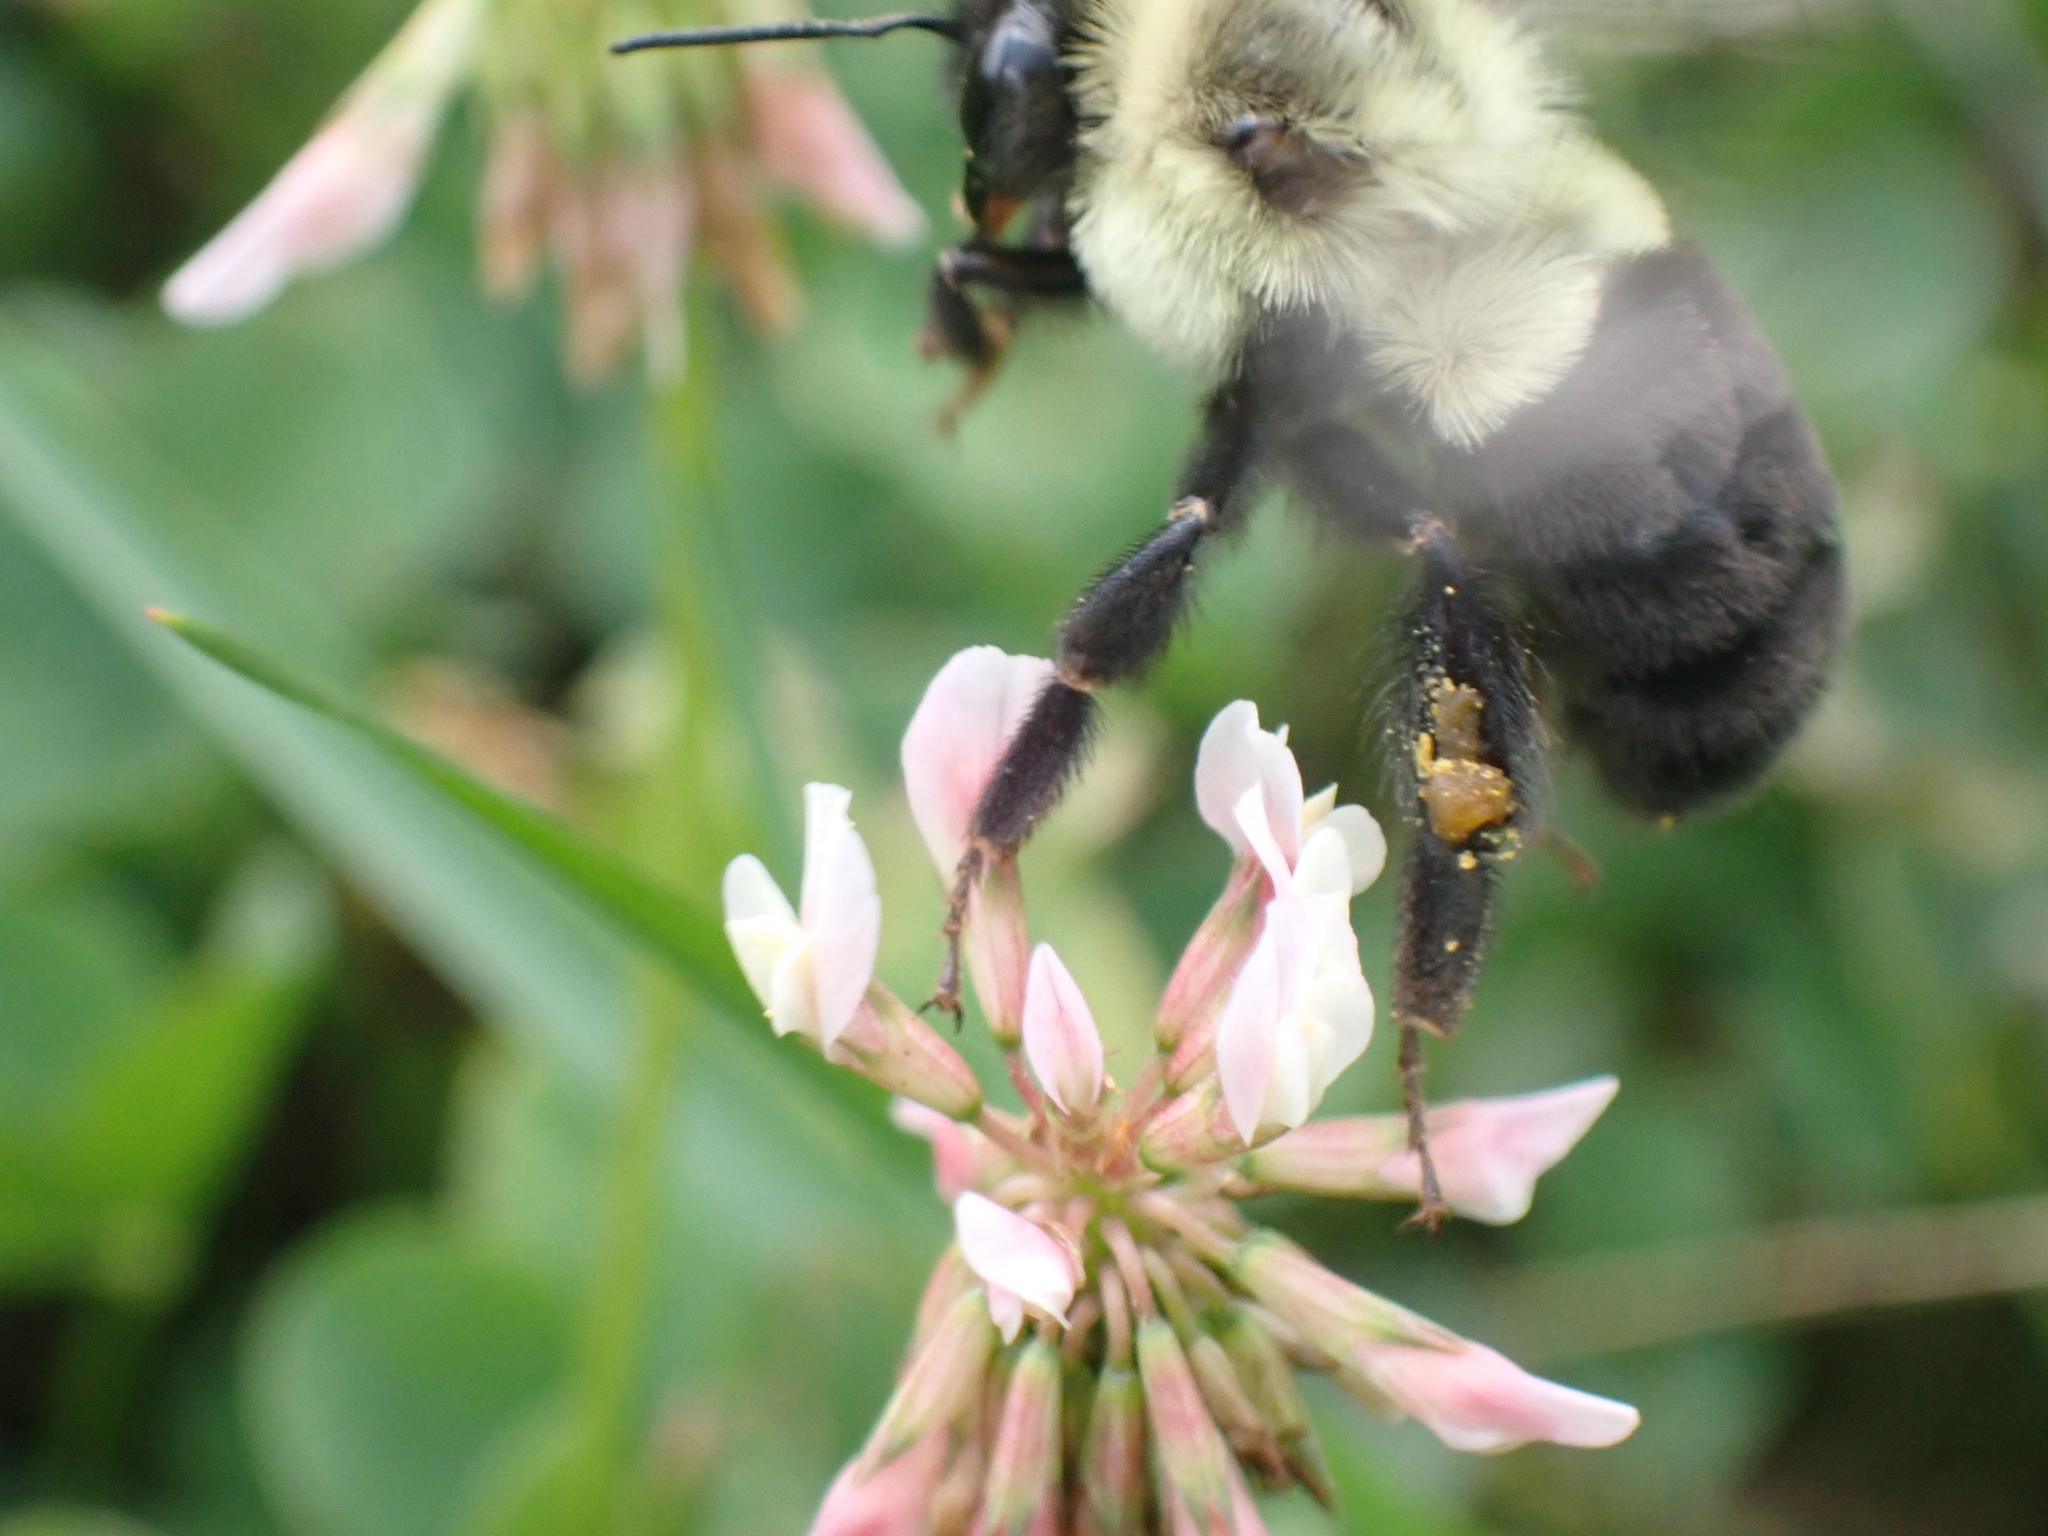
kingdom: Animalia
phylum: Arthropoda
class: Insecta
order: Hymenoptera
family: Apidae
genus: Bombus
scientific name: Bombus impatiens
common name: Common eastern bumble bee
